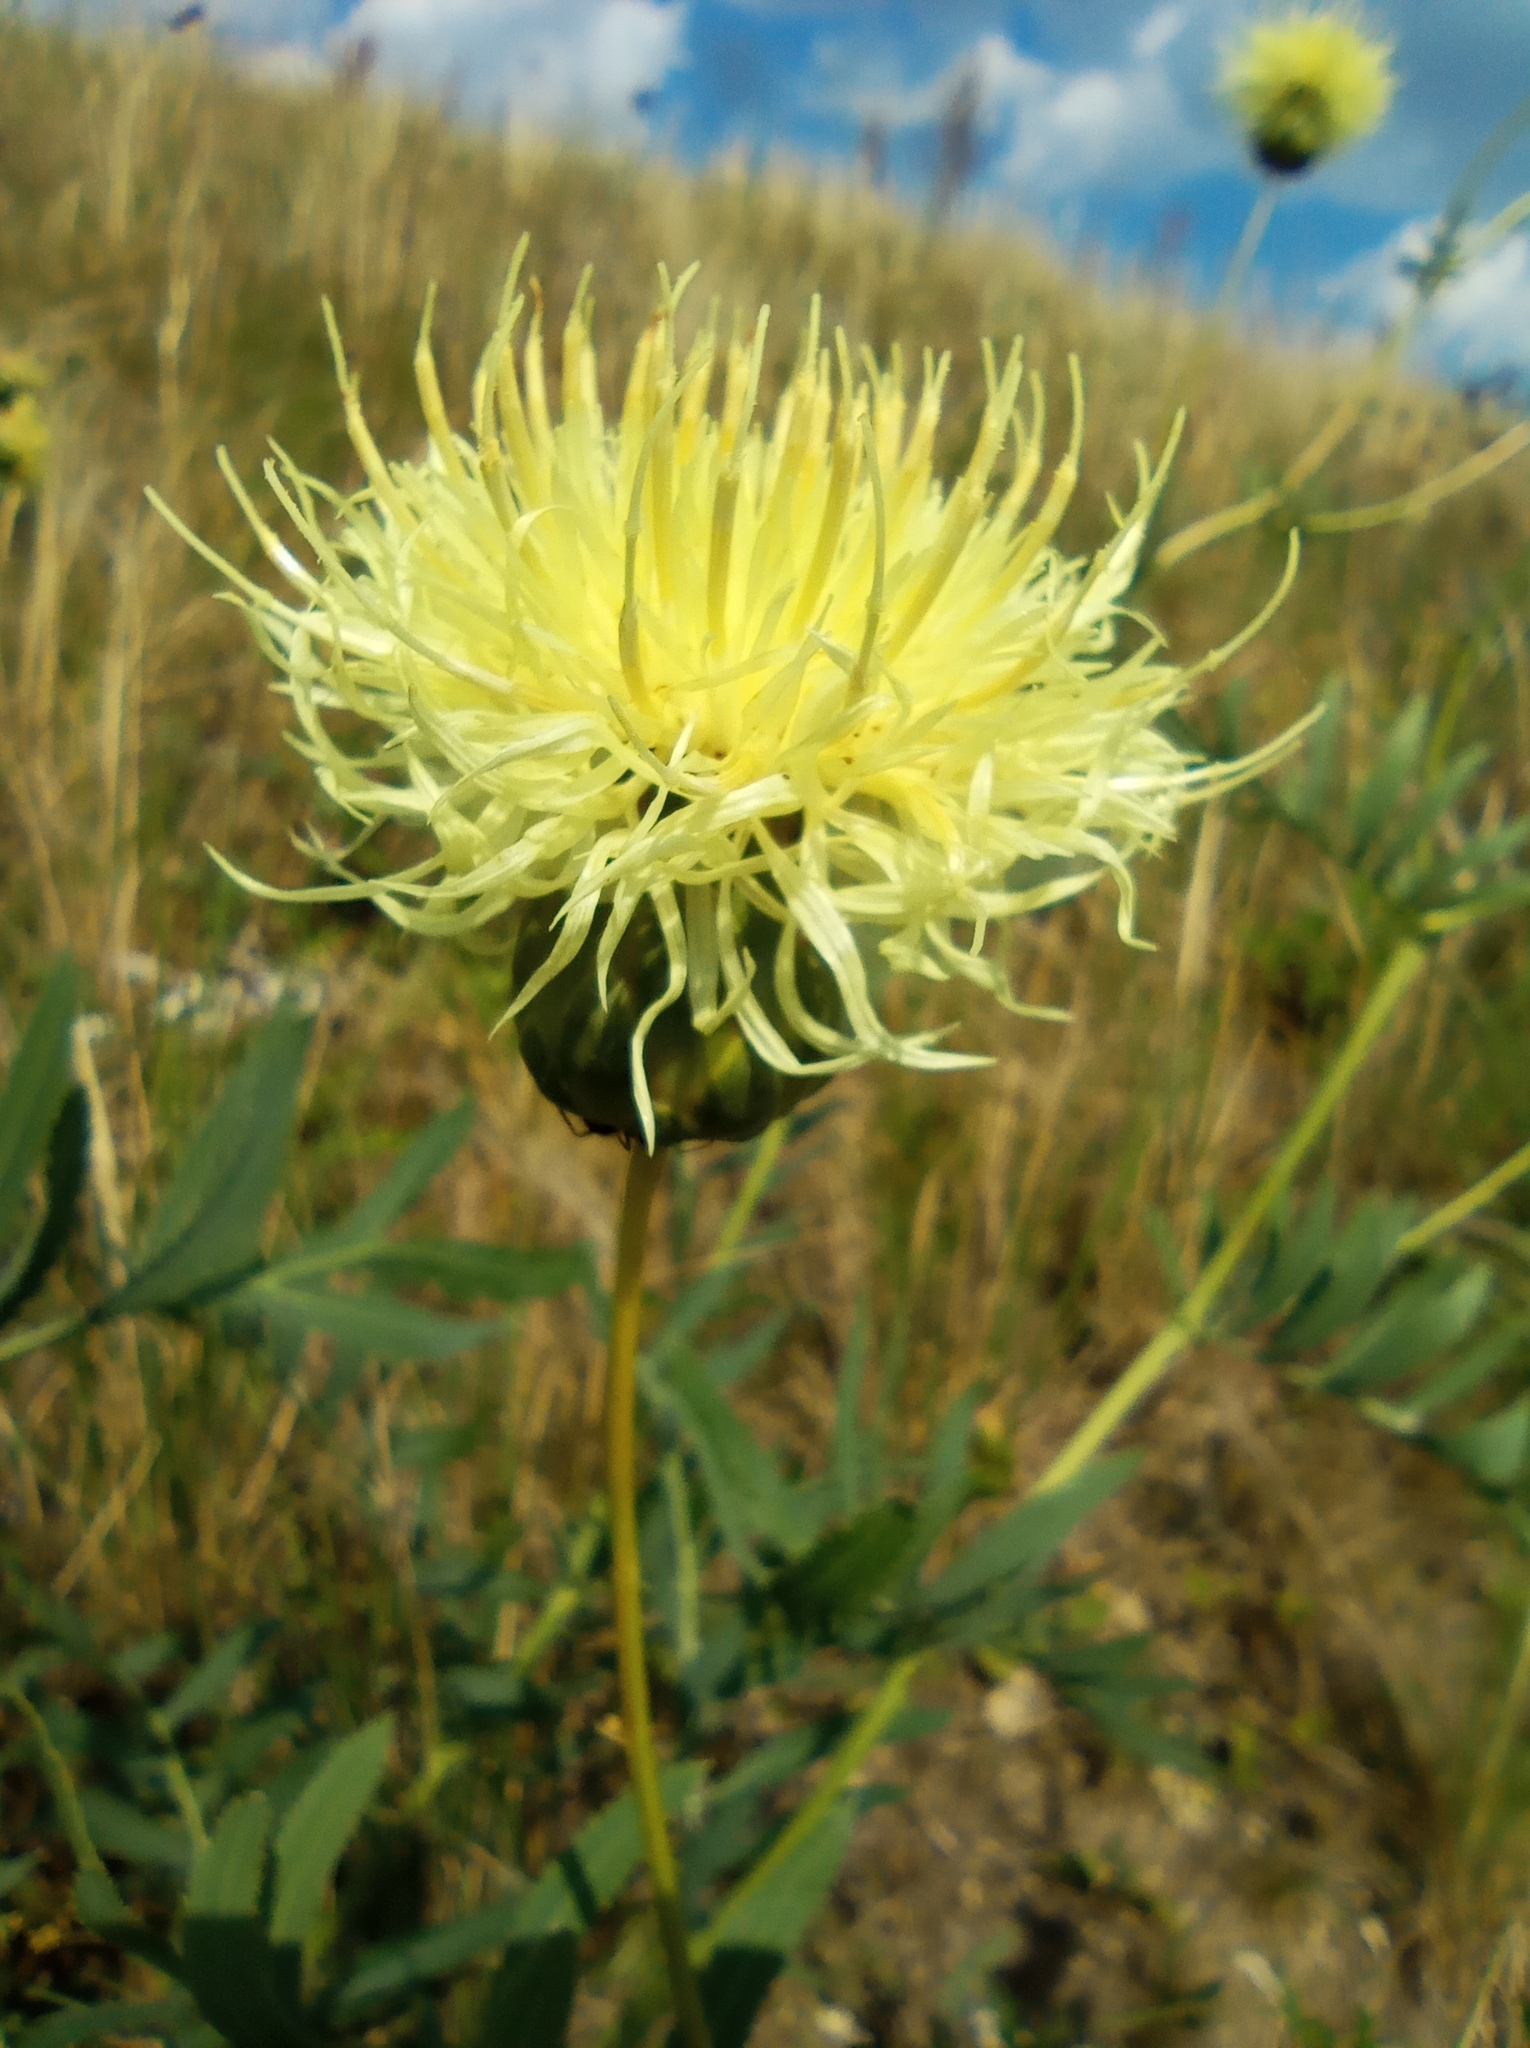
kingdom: Plantae
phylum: Tracheophyta
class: Magnoliopsida
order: Asterales
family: Asteraceae
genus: Rhaponticoides
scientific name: Rhaponticoides ruthenica
